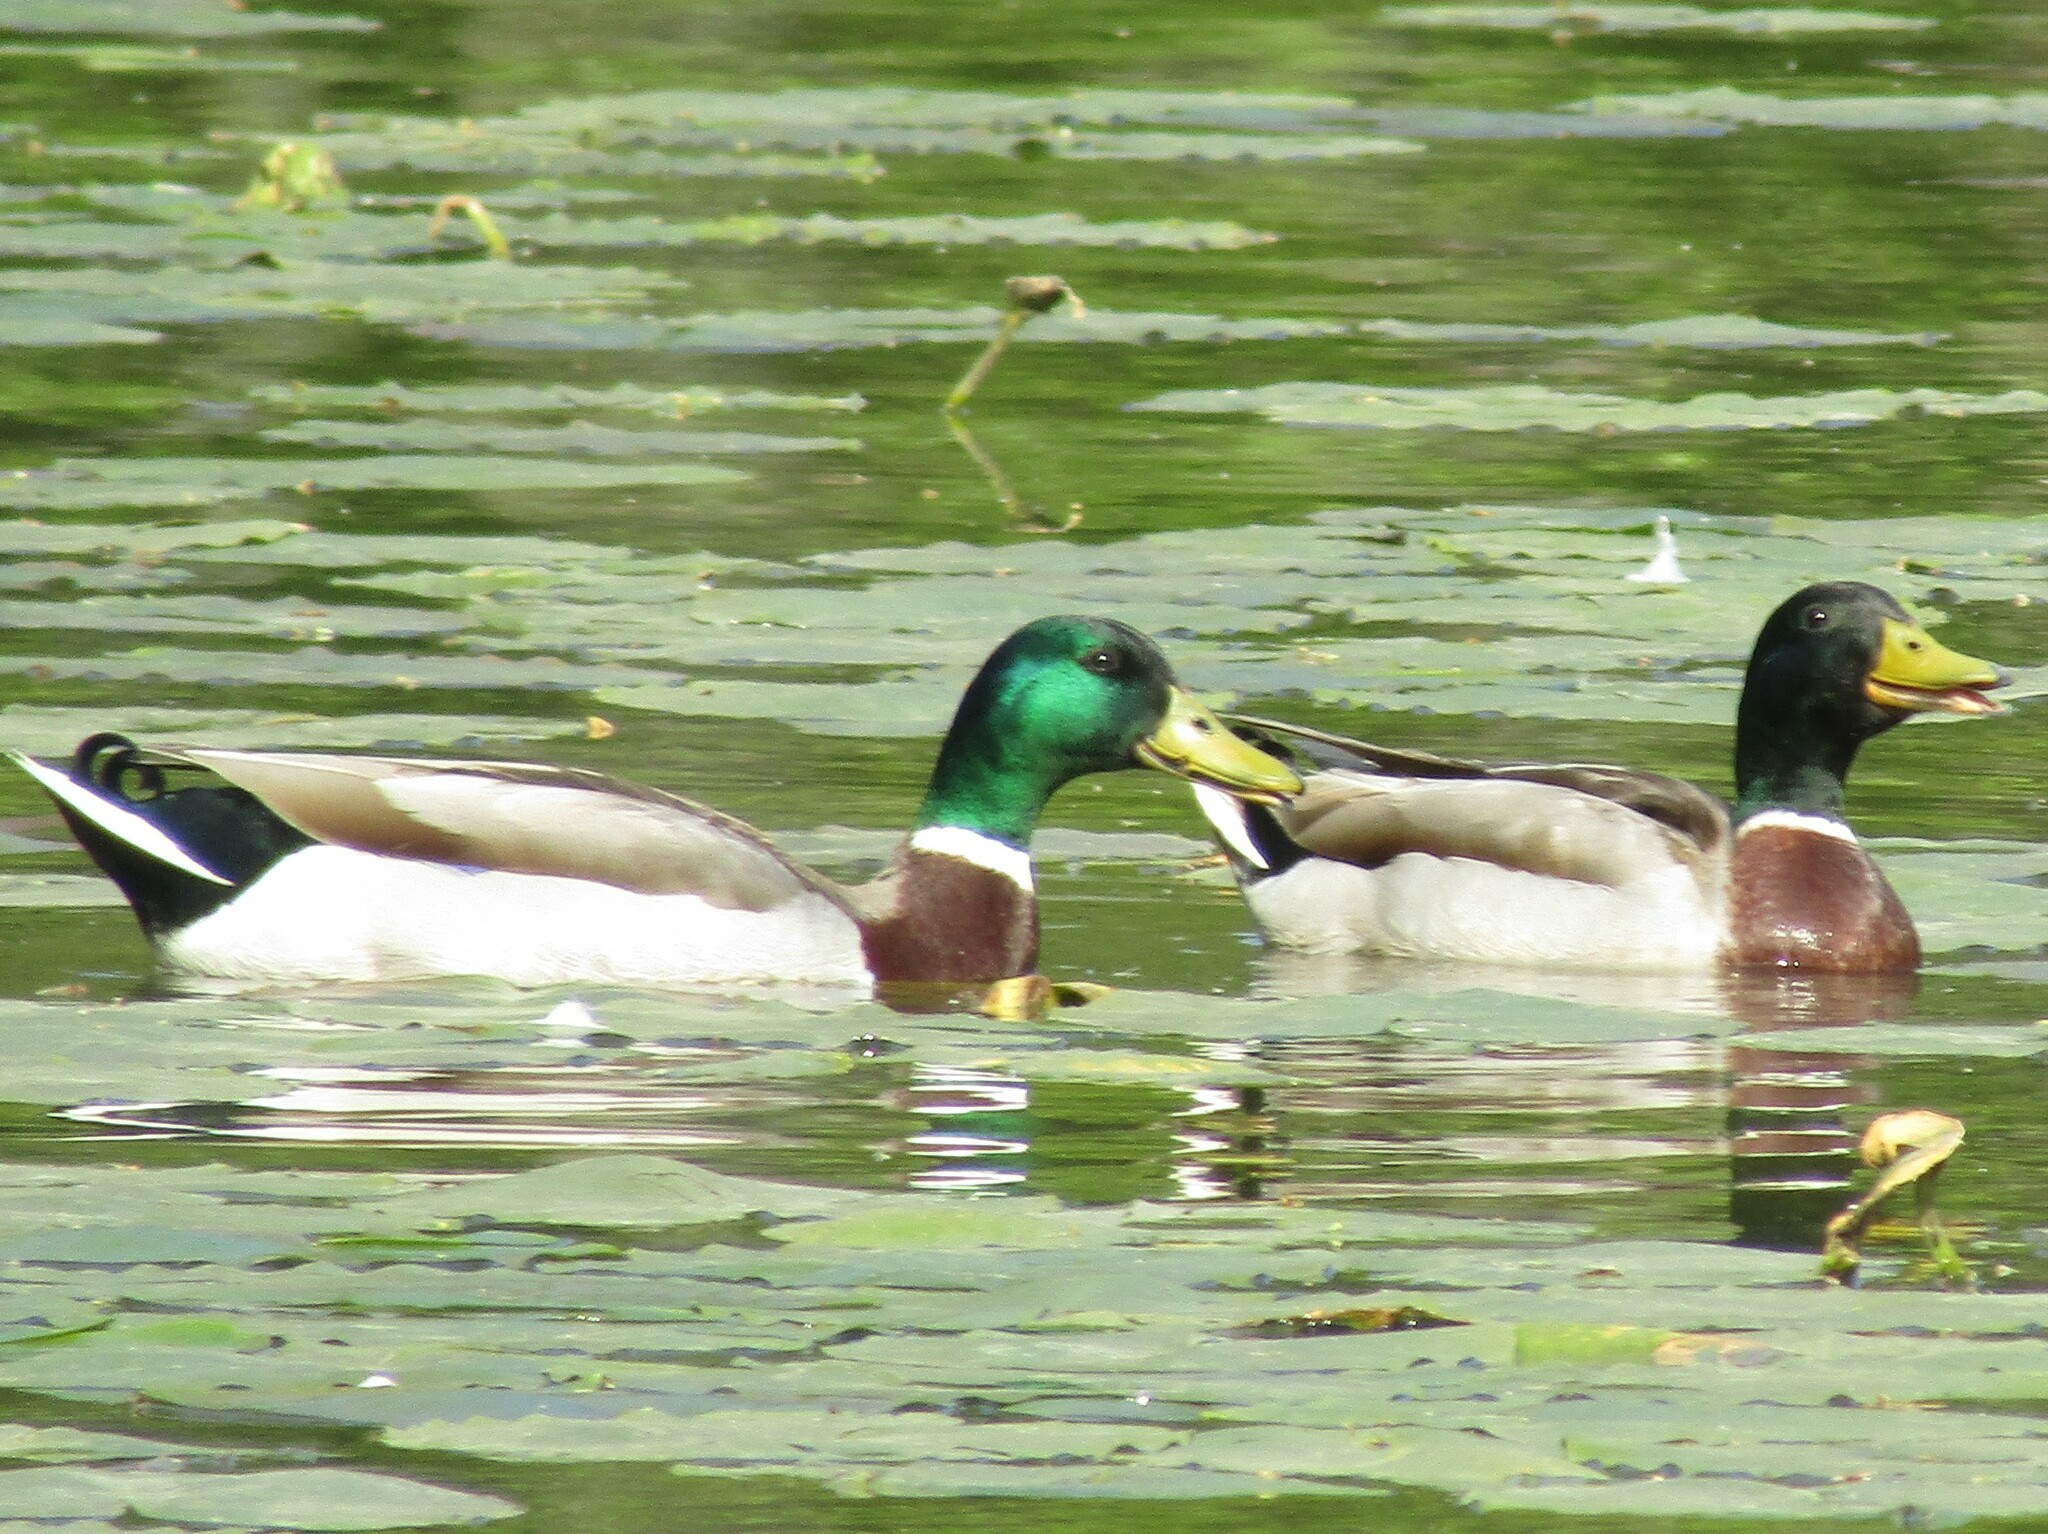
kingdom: Animalia
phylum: Chordata
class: Aves
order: Anseriformes
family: Anatidae
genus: Anas
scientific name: Anas platyrhynchos
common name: Mallard
